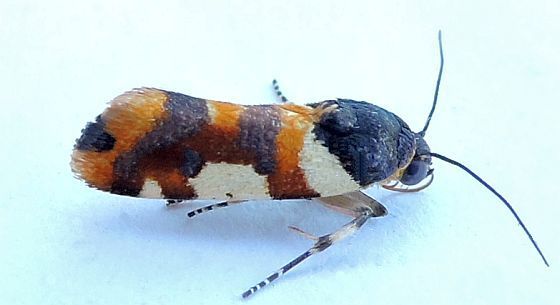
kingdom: Animalia
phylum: Arthropoda
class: Insecta
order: Lepidoptera
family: Noctuidae
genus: Acontia
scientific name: Acontia dama
